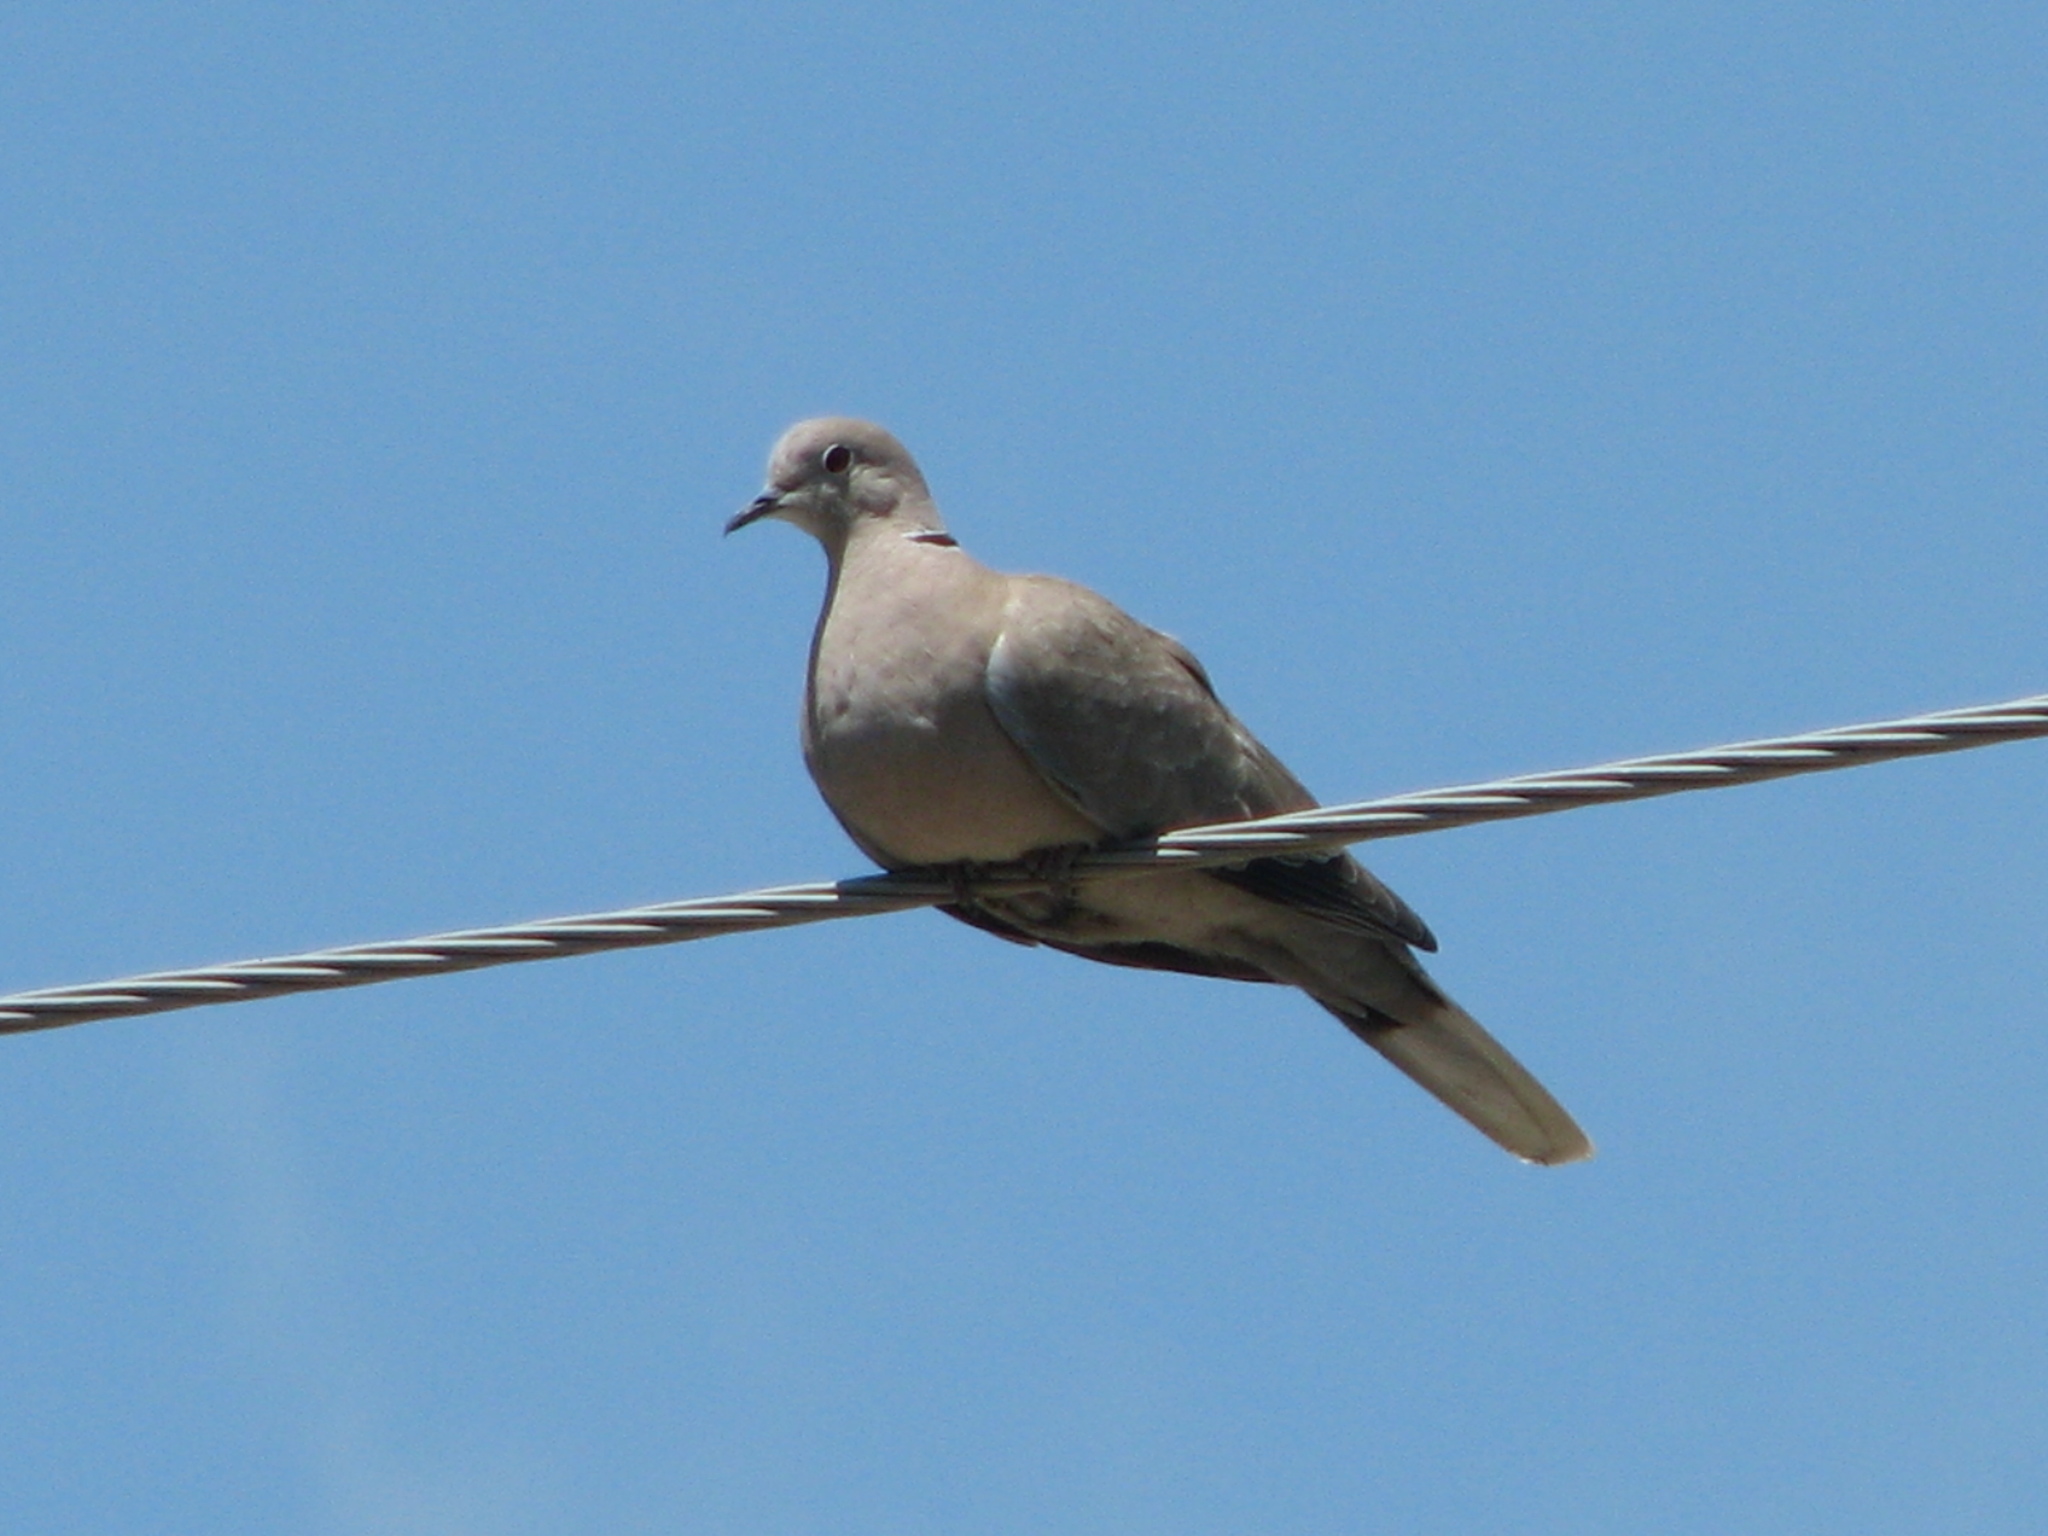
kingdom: Animalia
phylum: Chordata
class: Aves
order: Columbiformes
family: Columbidae
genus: Streptopelia
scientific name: Streptopelia decaocto
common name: Eurasian collared dove
